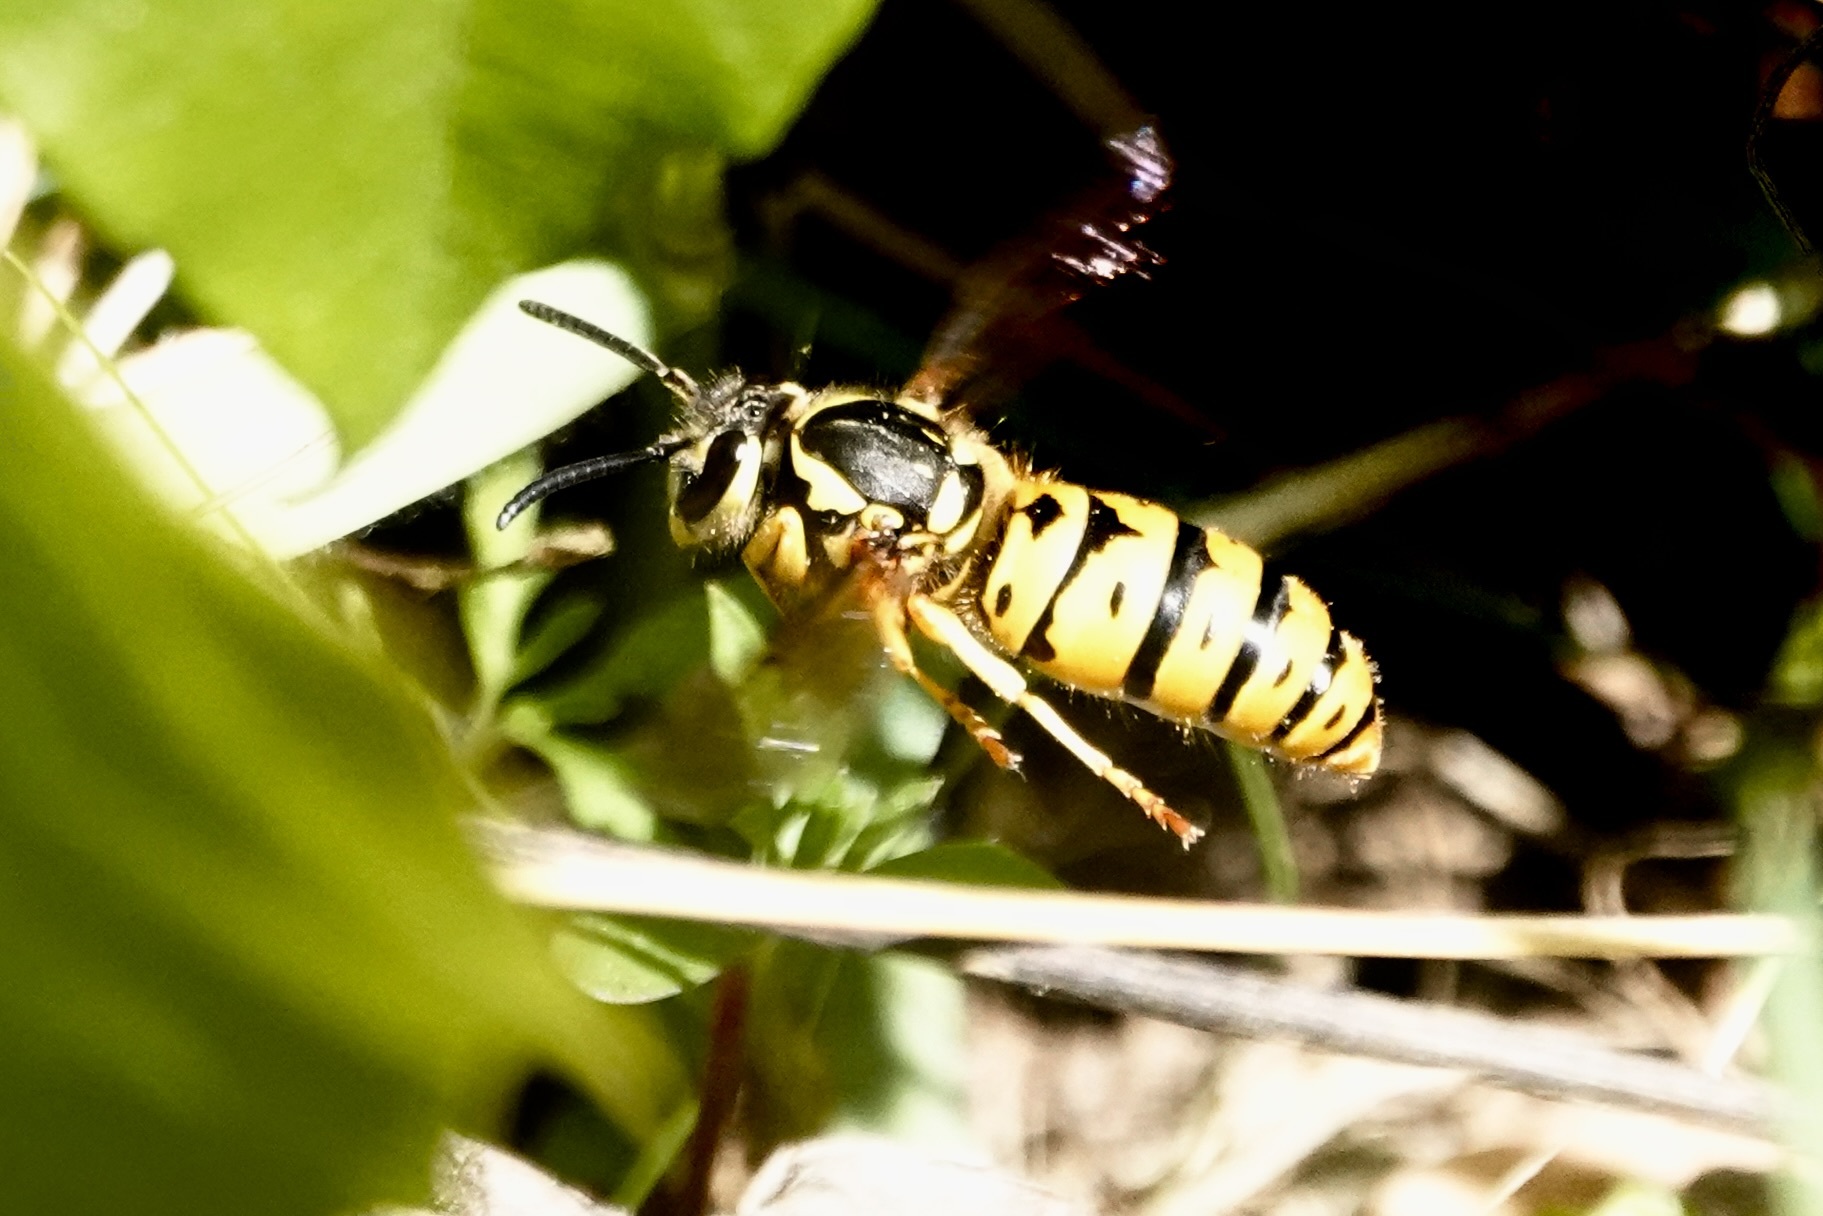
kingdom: Animalia
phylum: Arthropoda
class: Insecta
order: Hymenoptera
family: Vespidae
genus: Vespula
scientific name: Vespula maculifrons
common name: Eastern yellowjacket
